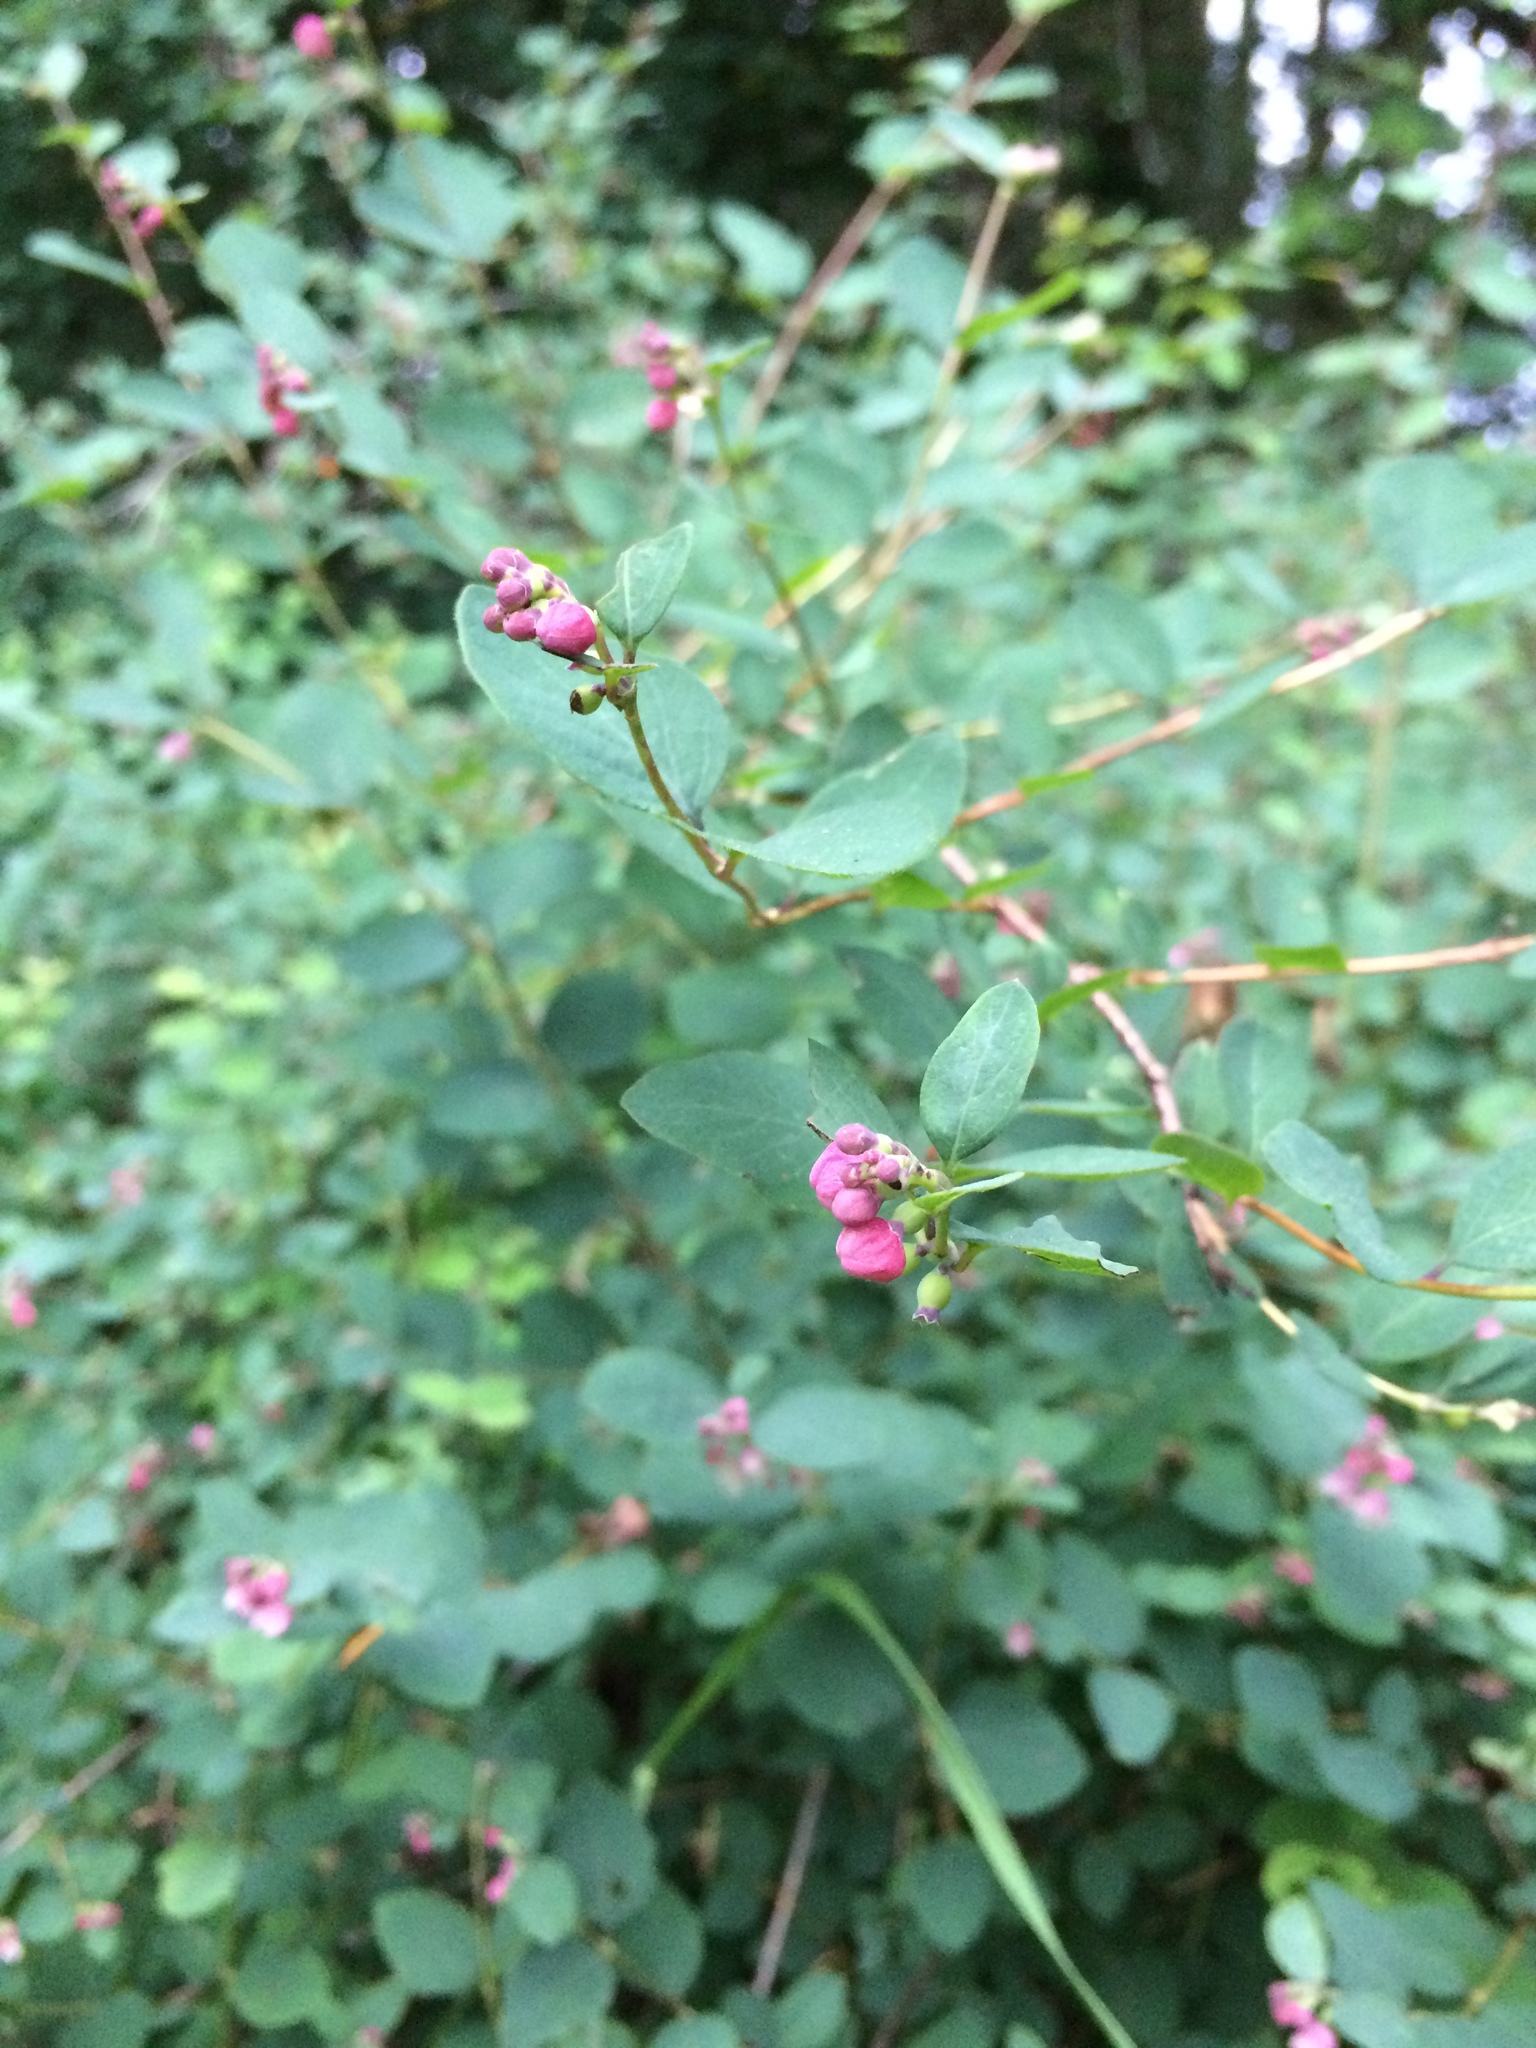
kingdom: Plantae
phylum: Tracheophyta
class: Magnoliopsida
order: Dipsacales
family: Caprifoliaceae
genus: Symphoricarpos
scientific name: Symphoricarpos albus
